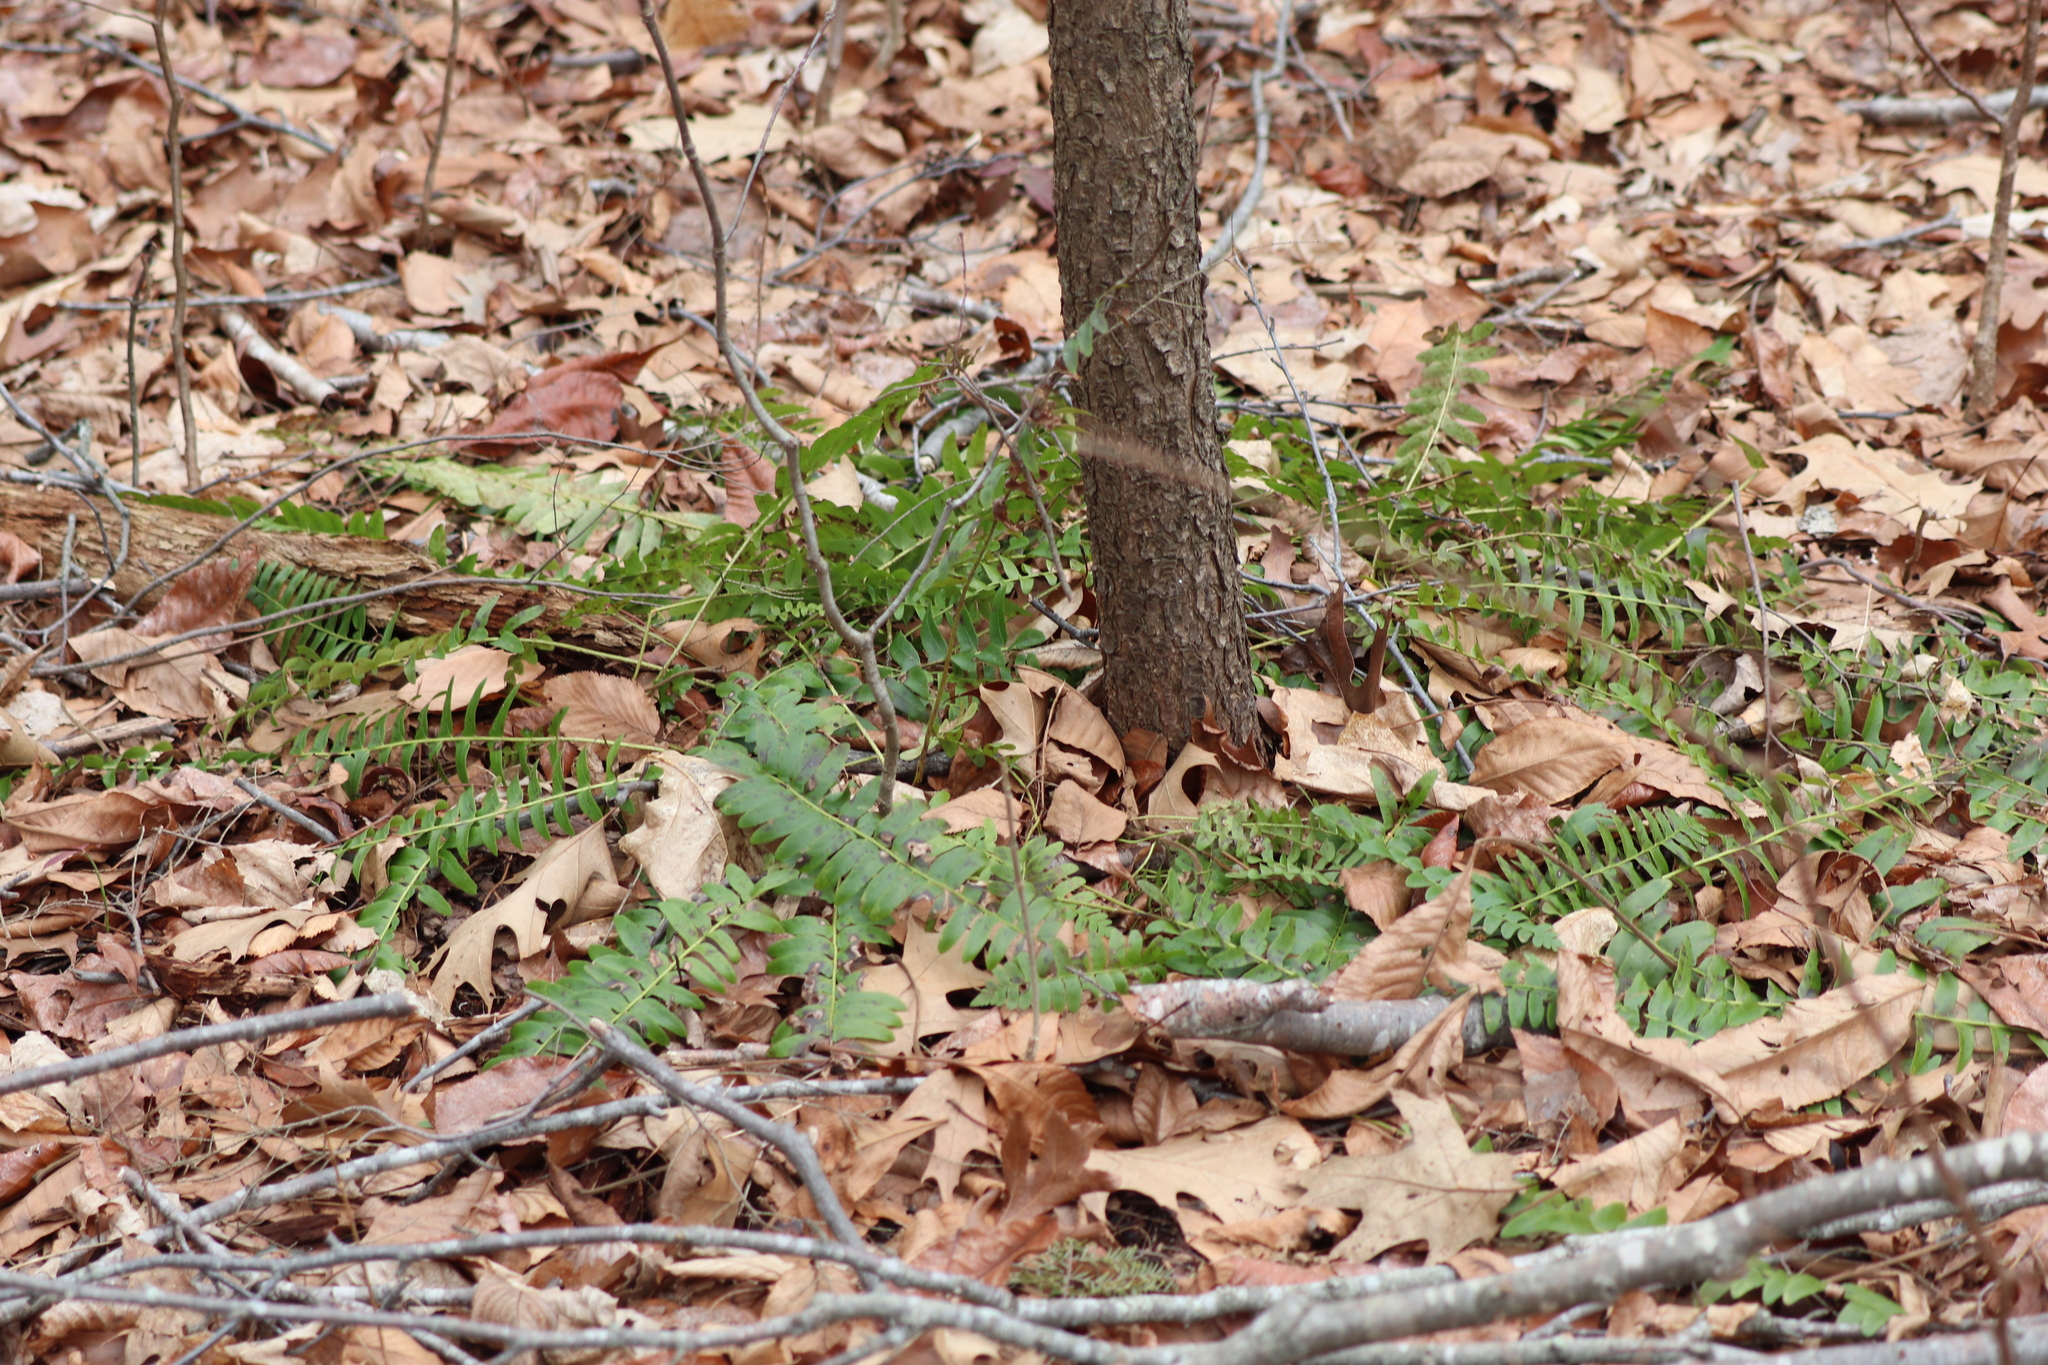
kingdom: Plantae
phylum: Tracheophyta
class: Polypodiopsida
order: Polypodiales
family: Dryopteridaceae
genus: Polystichum
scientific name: Polystichum acrostichoides
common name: Christmas fern
